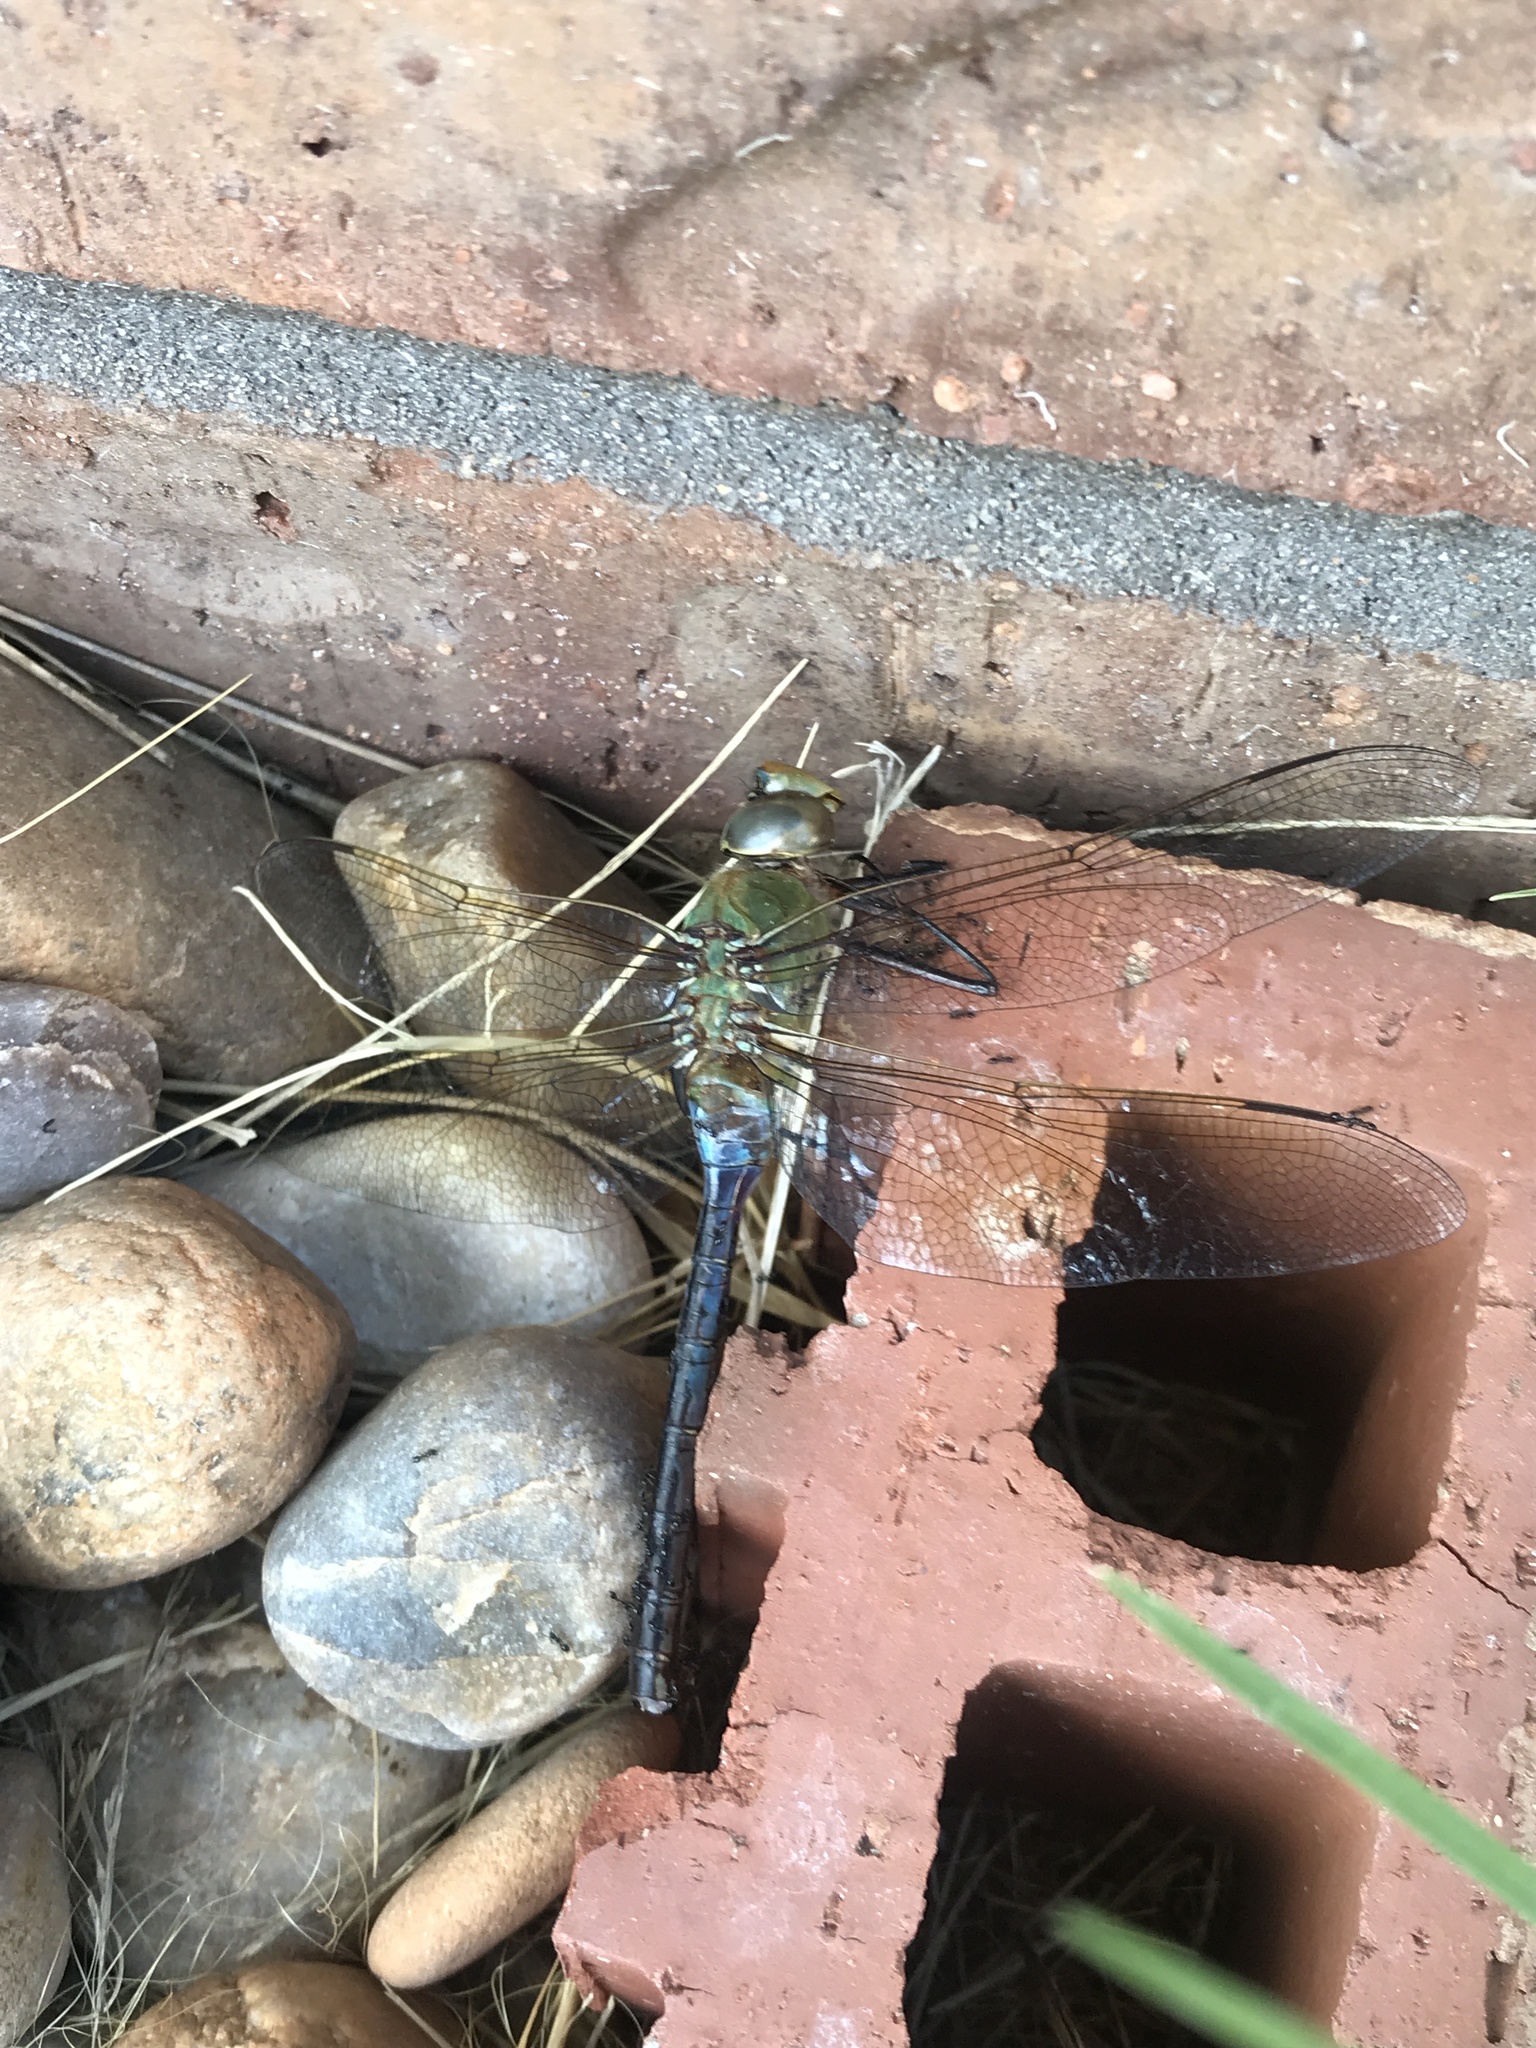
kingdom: Animalia
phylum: Arthropoda
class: Insecta
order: Odonata
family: Aeshnidae
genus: Anax
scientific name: Anax junius
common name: Common green darner
